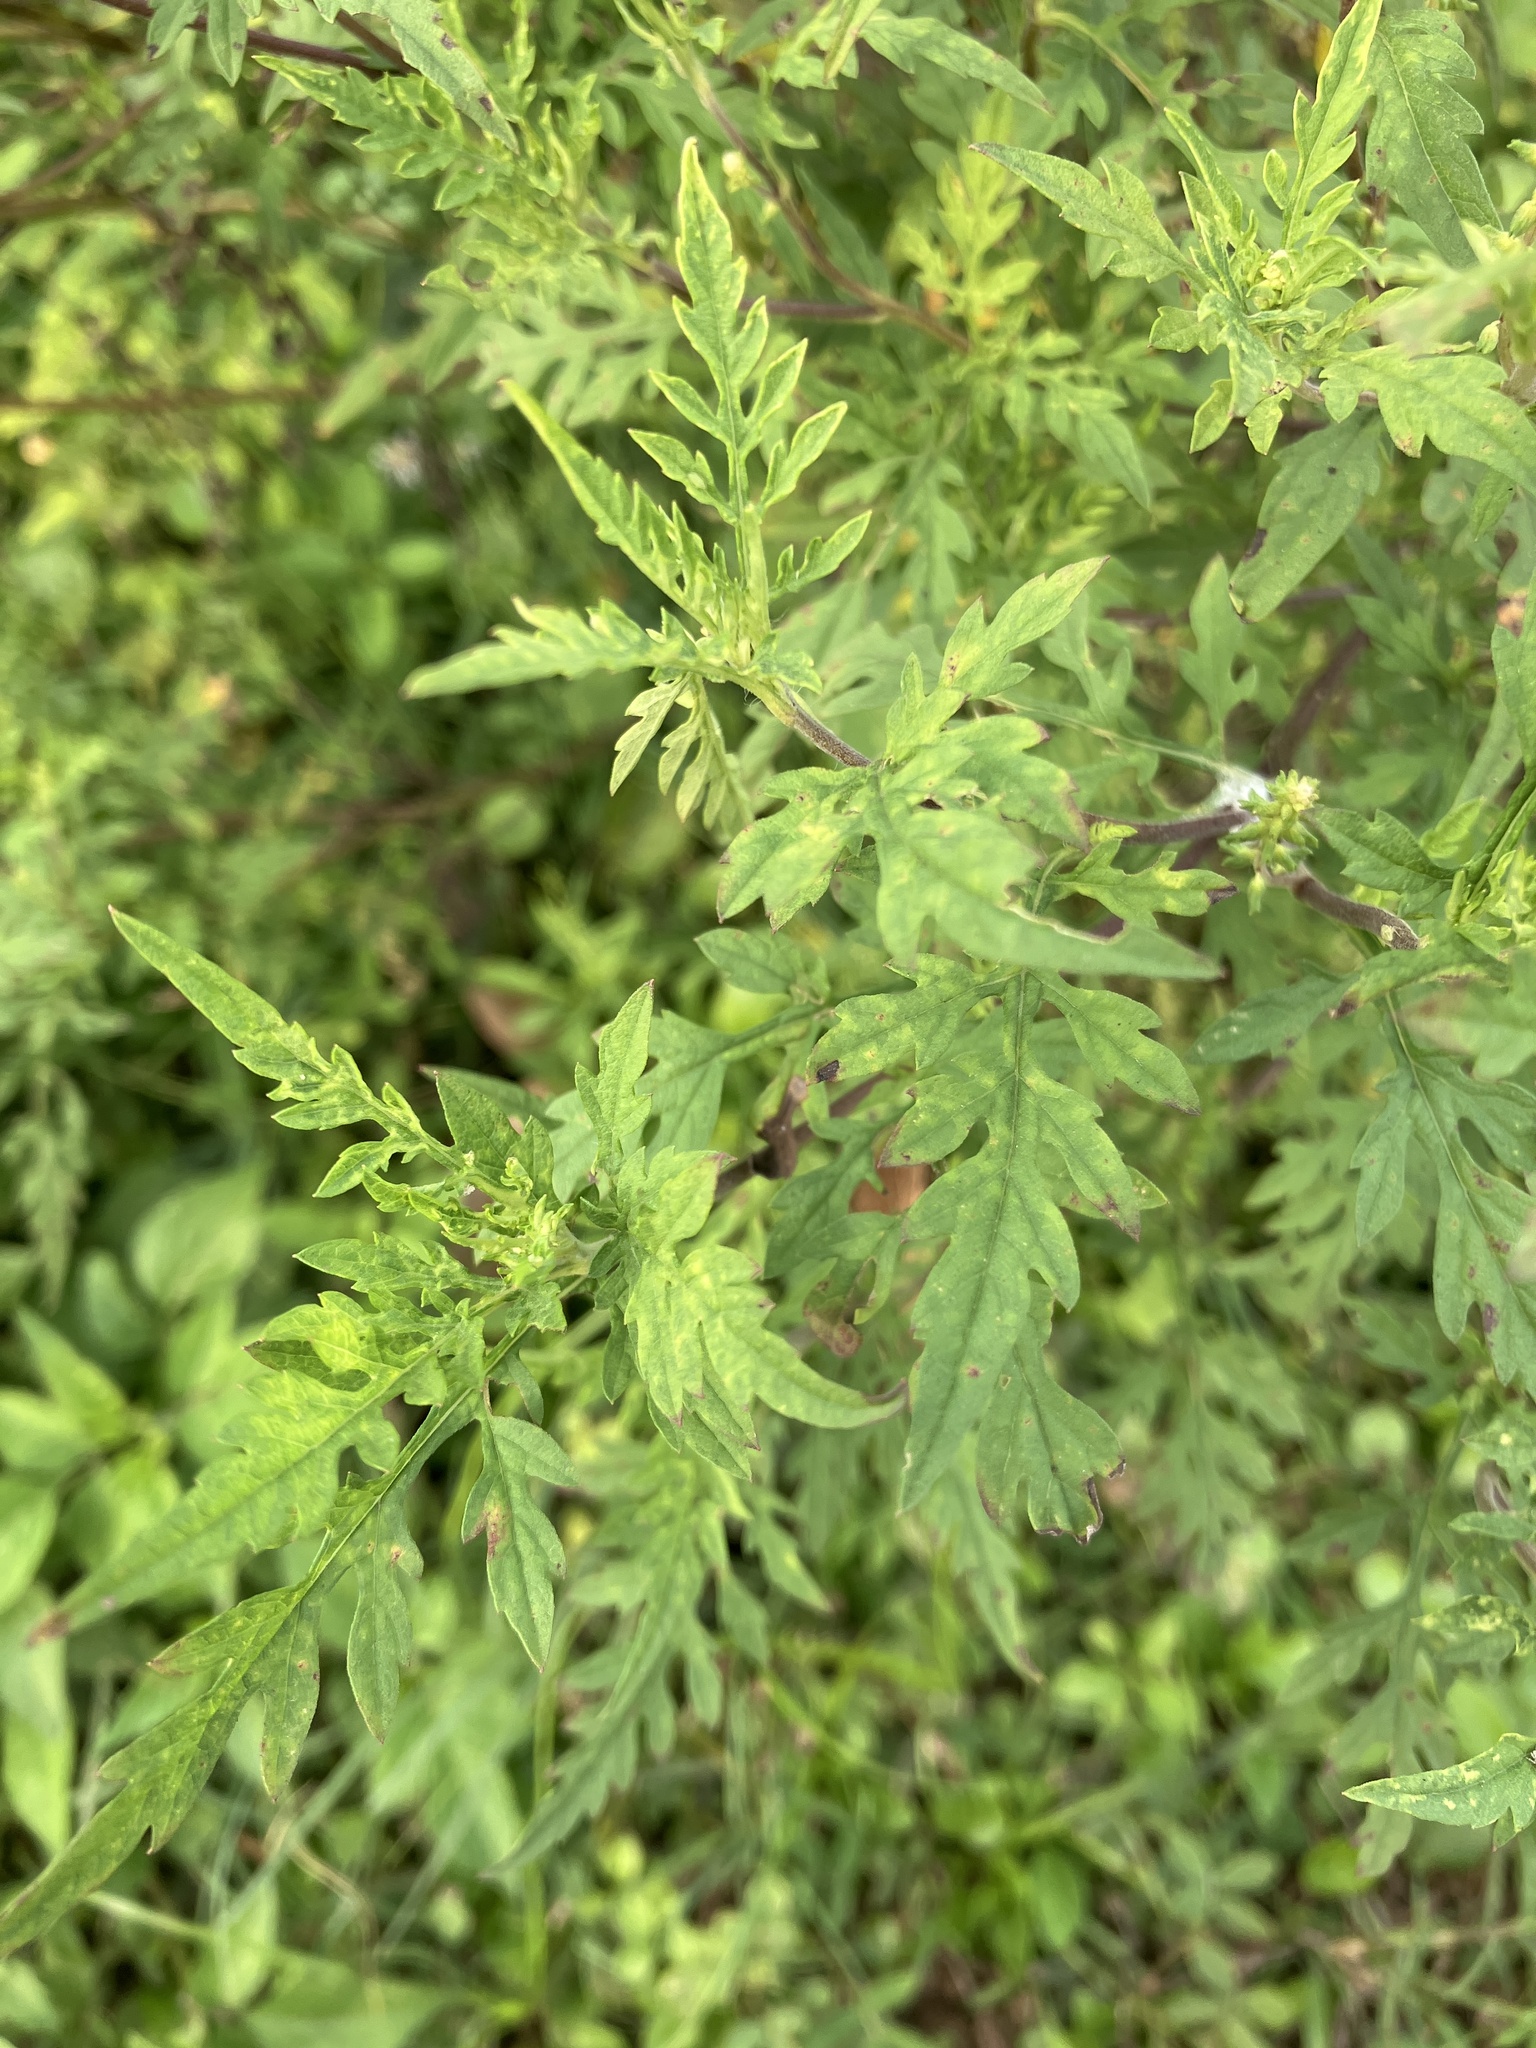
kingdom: Plantae
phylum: Tracheophyta
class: Magnoliopsida
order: Asterales
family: Asteraceae
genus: Ambrosia
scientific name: Ambrosia artemisiifolia
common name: Annual ragweed
